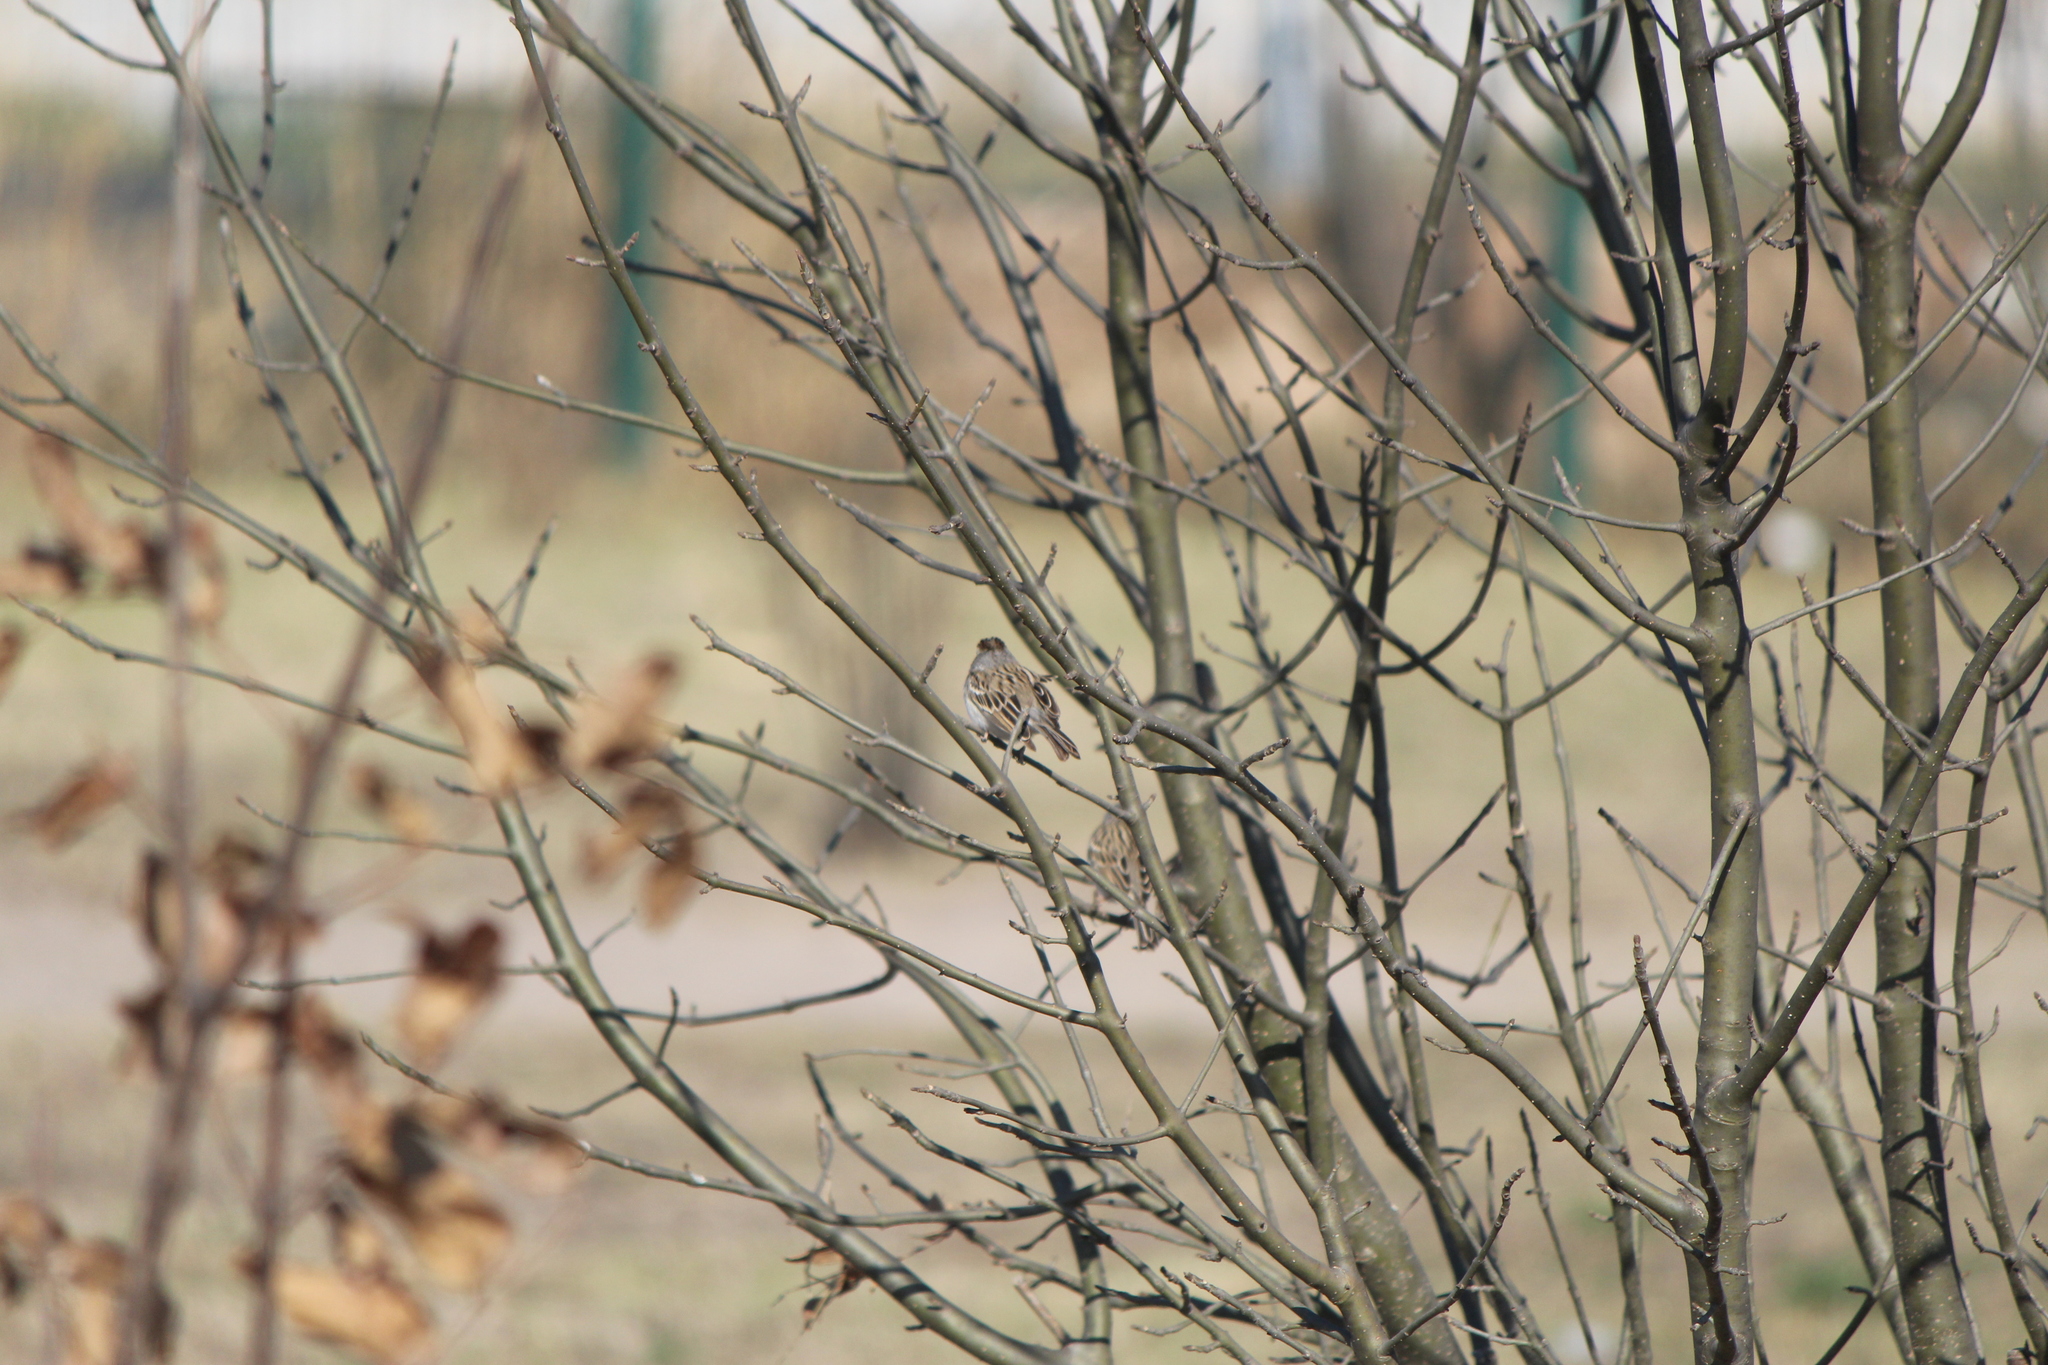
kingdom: Animalia
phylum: Chordata
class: Aves
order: Passeriformes
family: Passerellidae
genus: Spizella
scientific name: Spizella pallida
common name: Clay-colored sparrow
